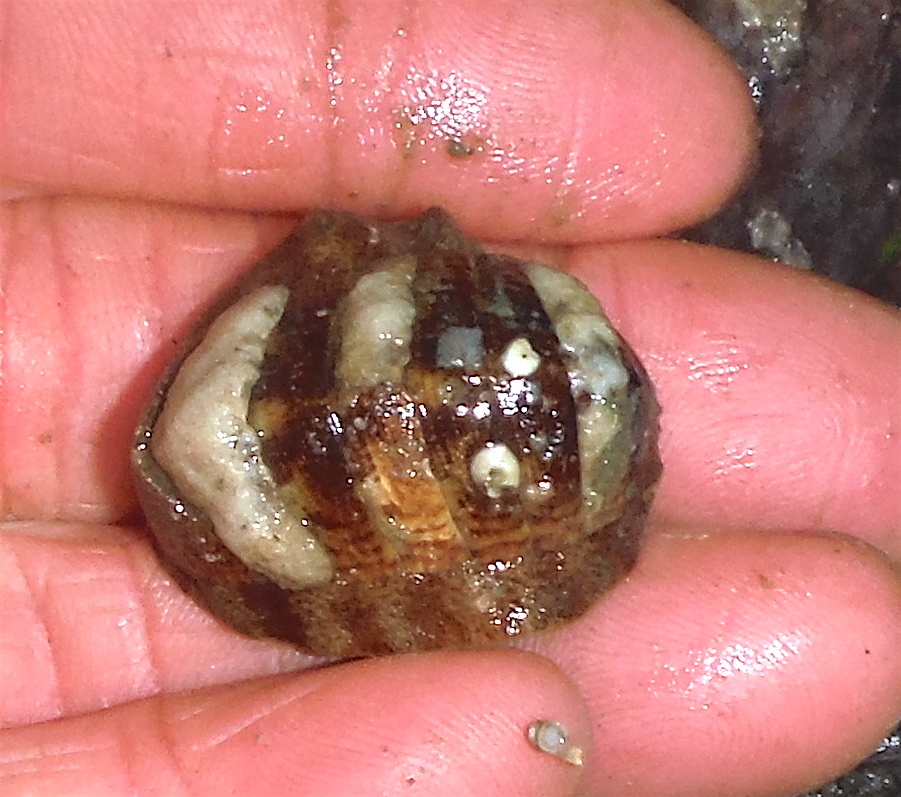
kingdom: Animalia
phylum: Mollusca
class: Polyplacophora
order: Chitonida
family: Ischnochitonidae
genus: Tripoplax
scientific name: Tripoplax trifida
